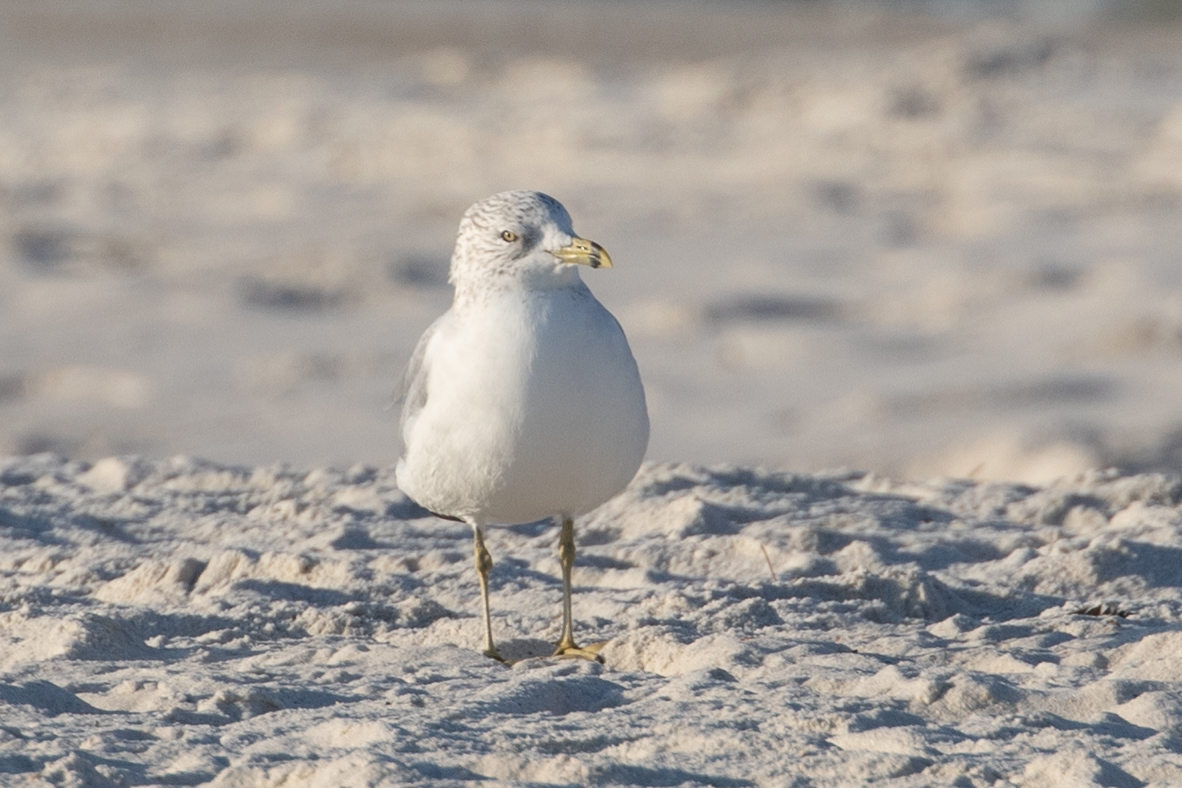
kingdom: Animalia
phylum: Chordata
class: Aves
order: Charadriiformes
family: Laridae
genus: Larus
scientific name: Larus delawarensis
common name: Ring-billed gull
